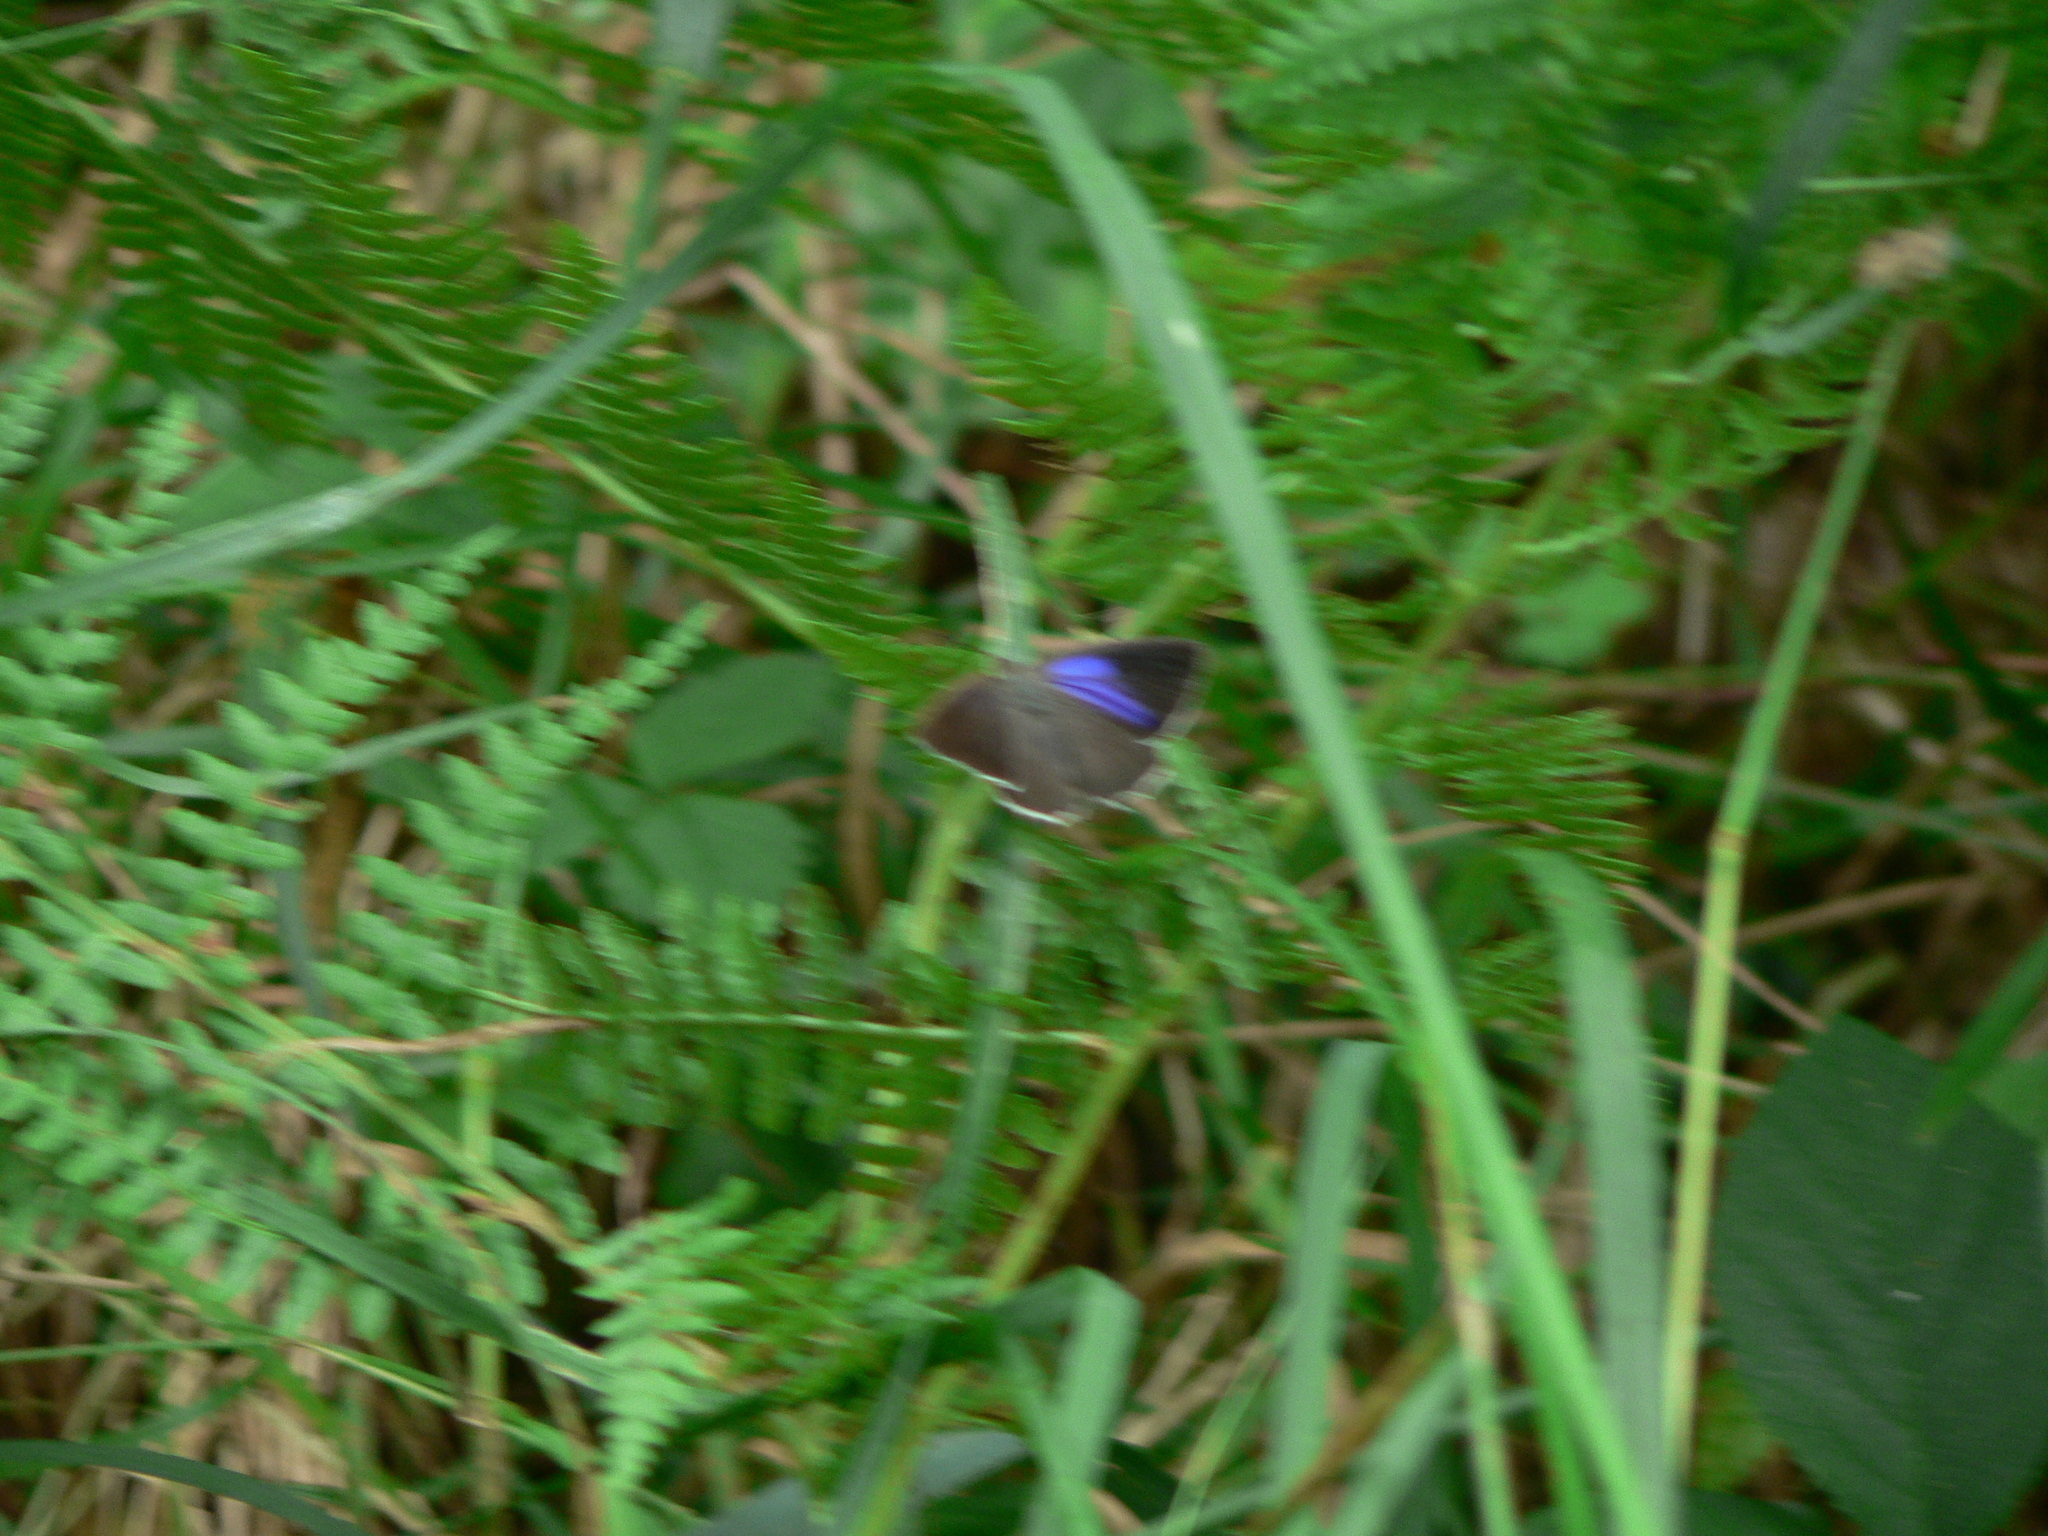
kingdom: Animalia
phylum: Arthropoda
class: Insecta
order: Lepidoptera
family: Lycaenidae
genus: Quercusia
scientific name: Quercusia quercus
